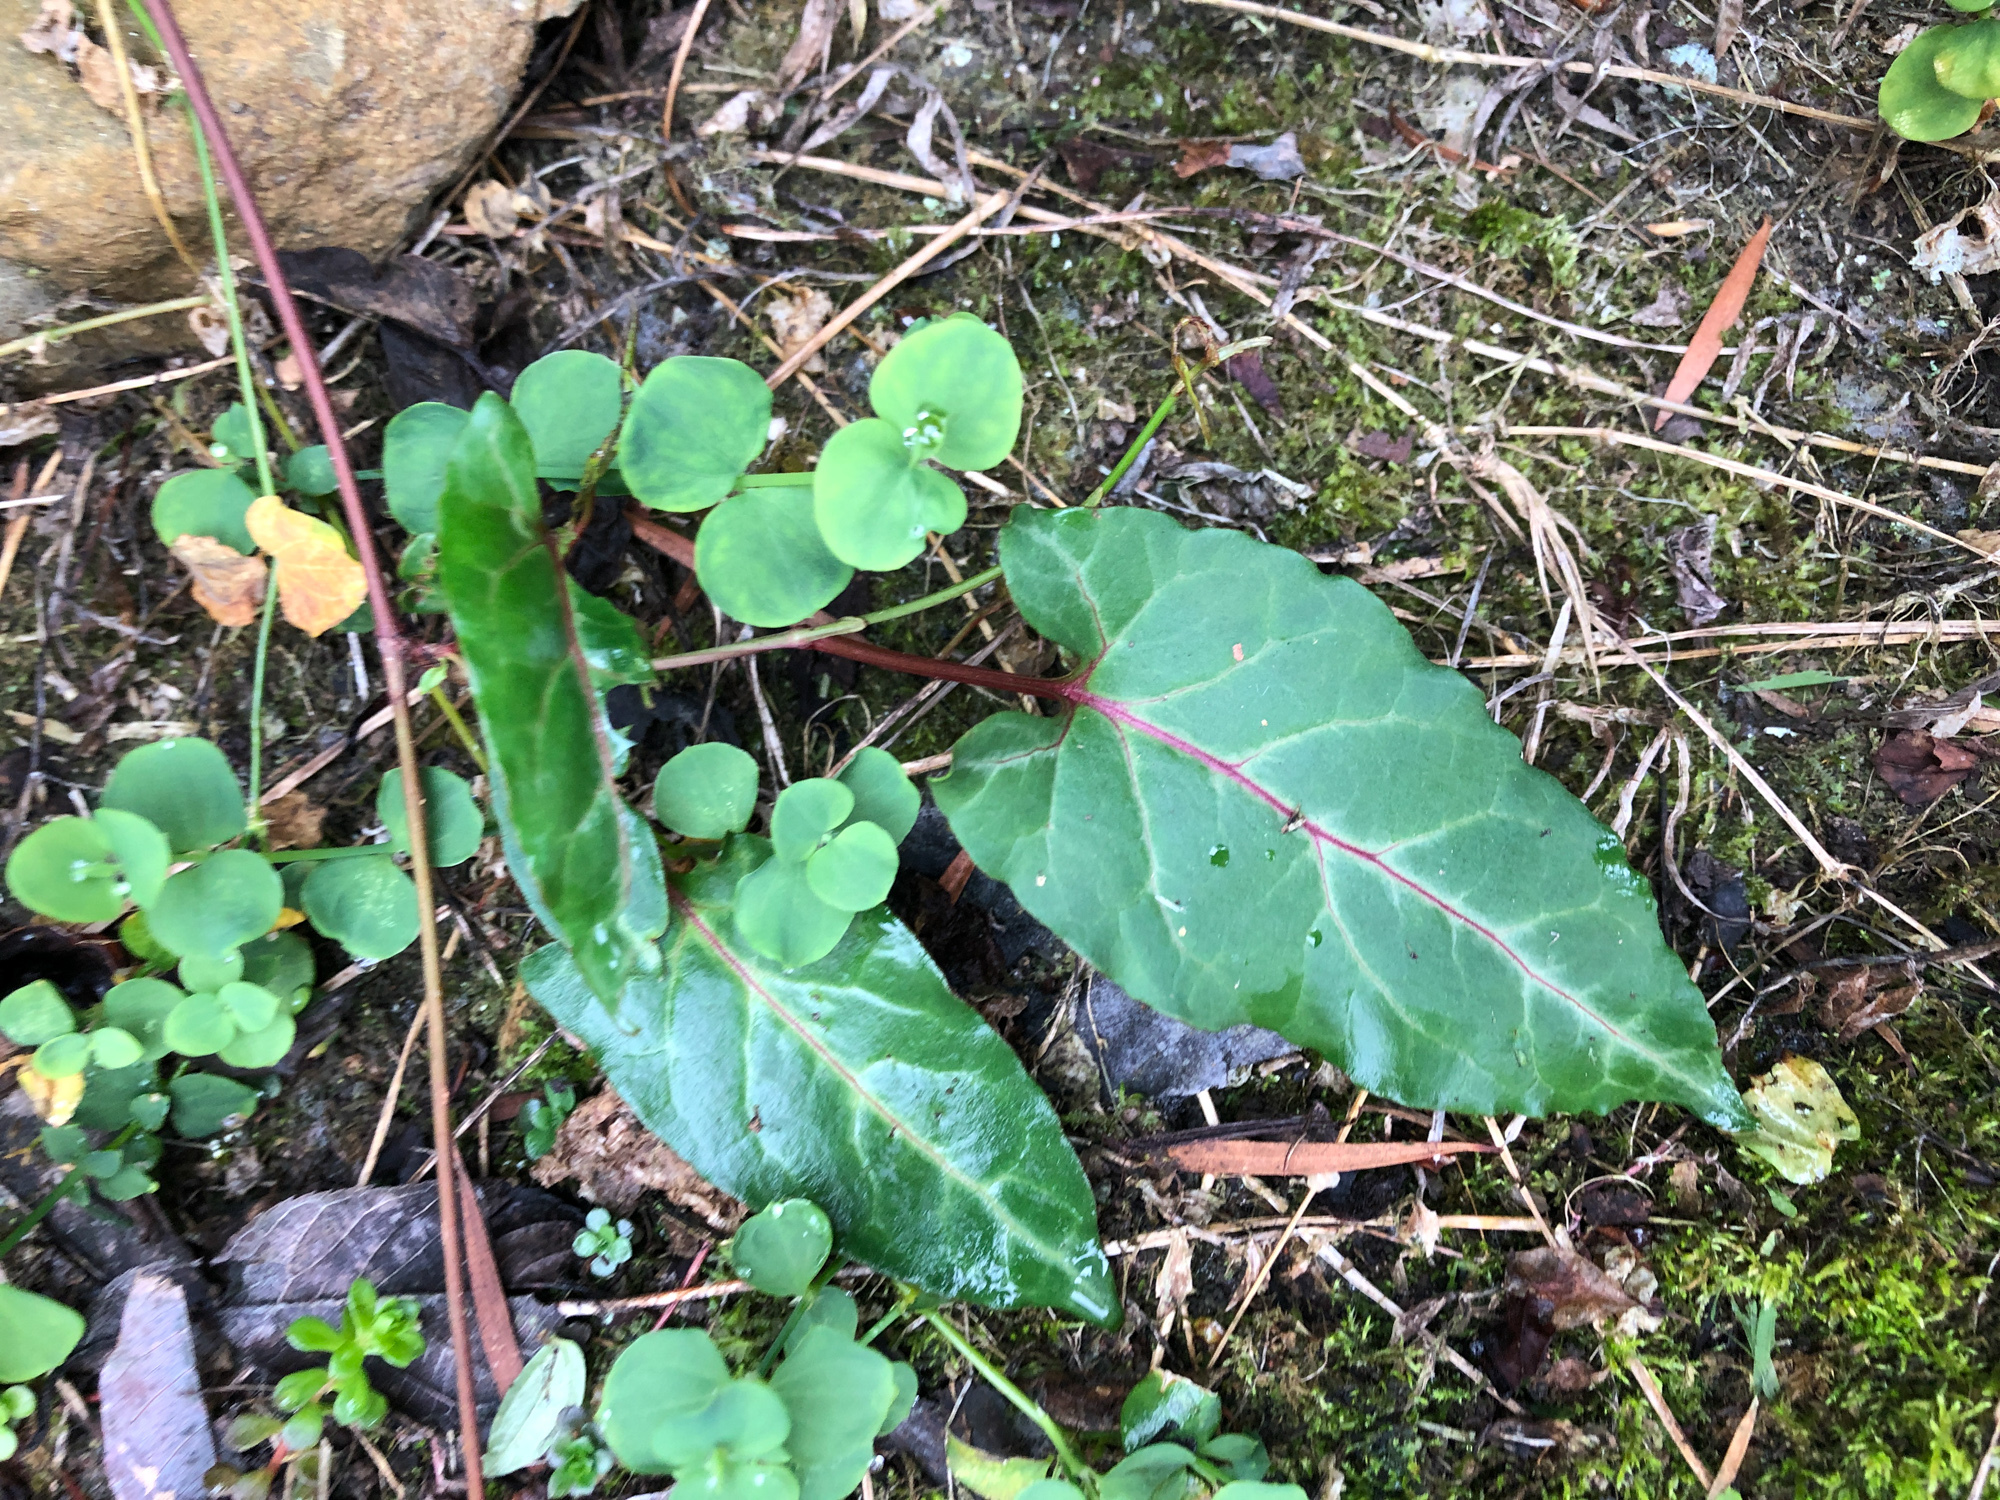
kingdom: Plantae
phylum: Tracheophyta
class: Magnoliopsida
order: Caryophyllales
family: Polygonaceae
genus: Reynoutria
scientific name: Reynoutria multiflora
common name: Chinese fleeceflower
